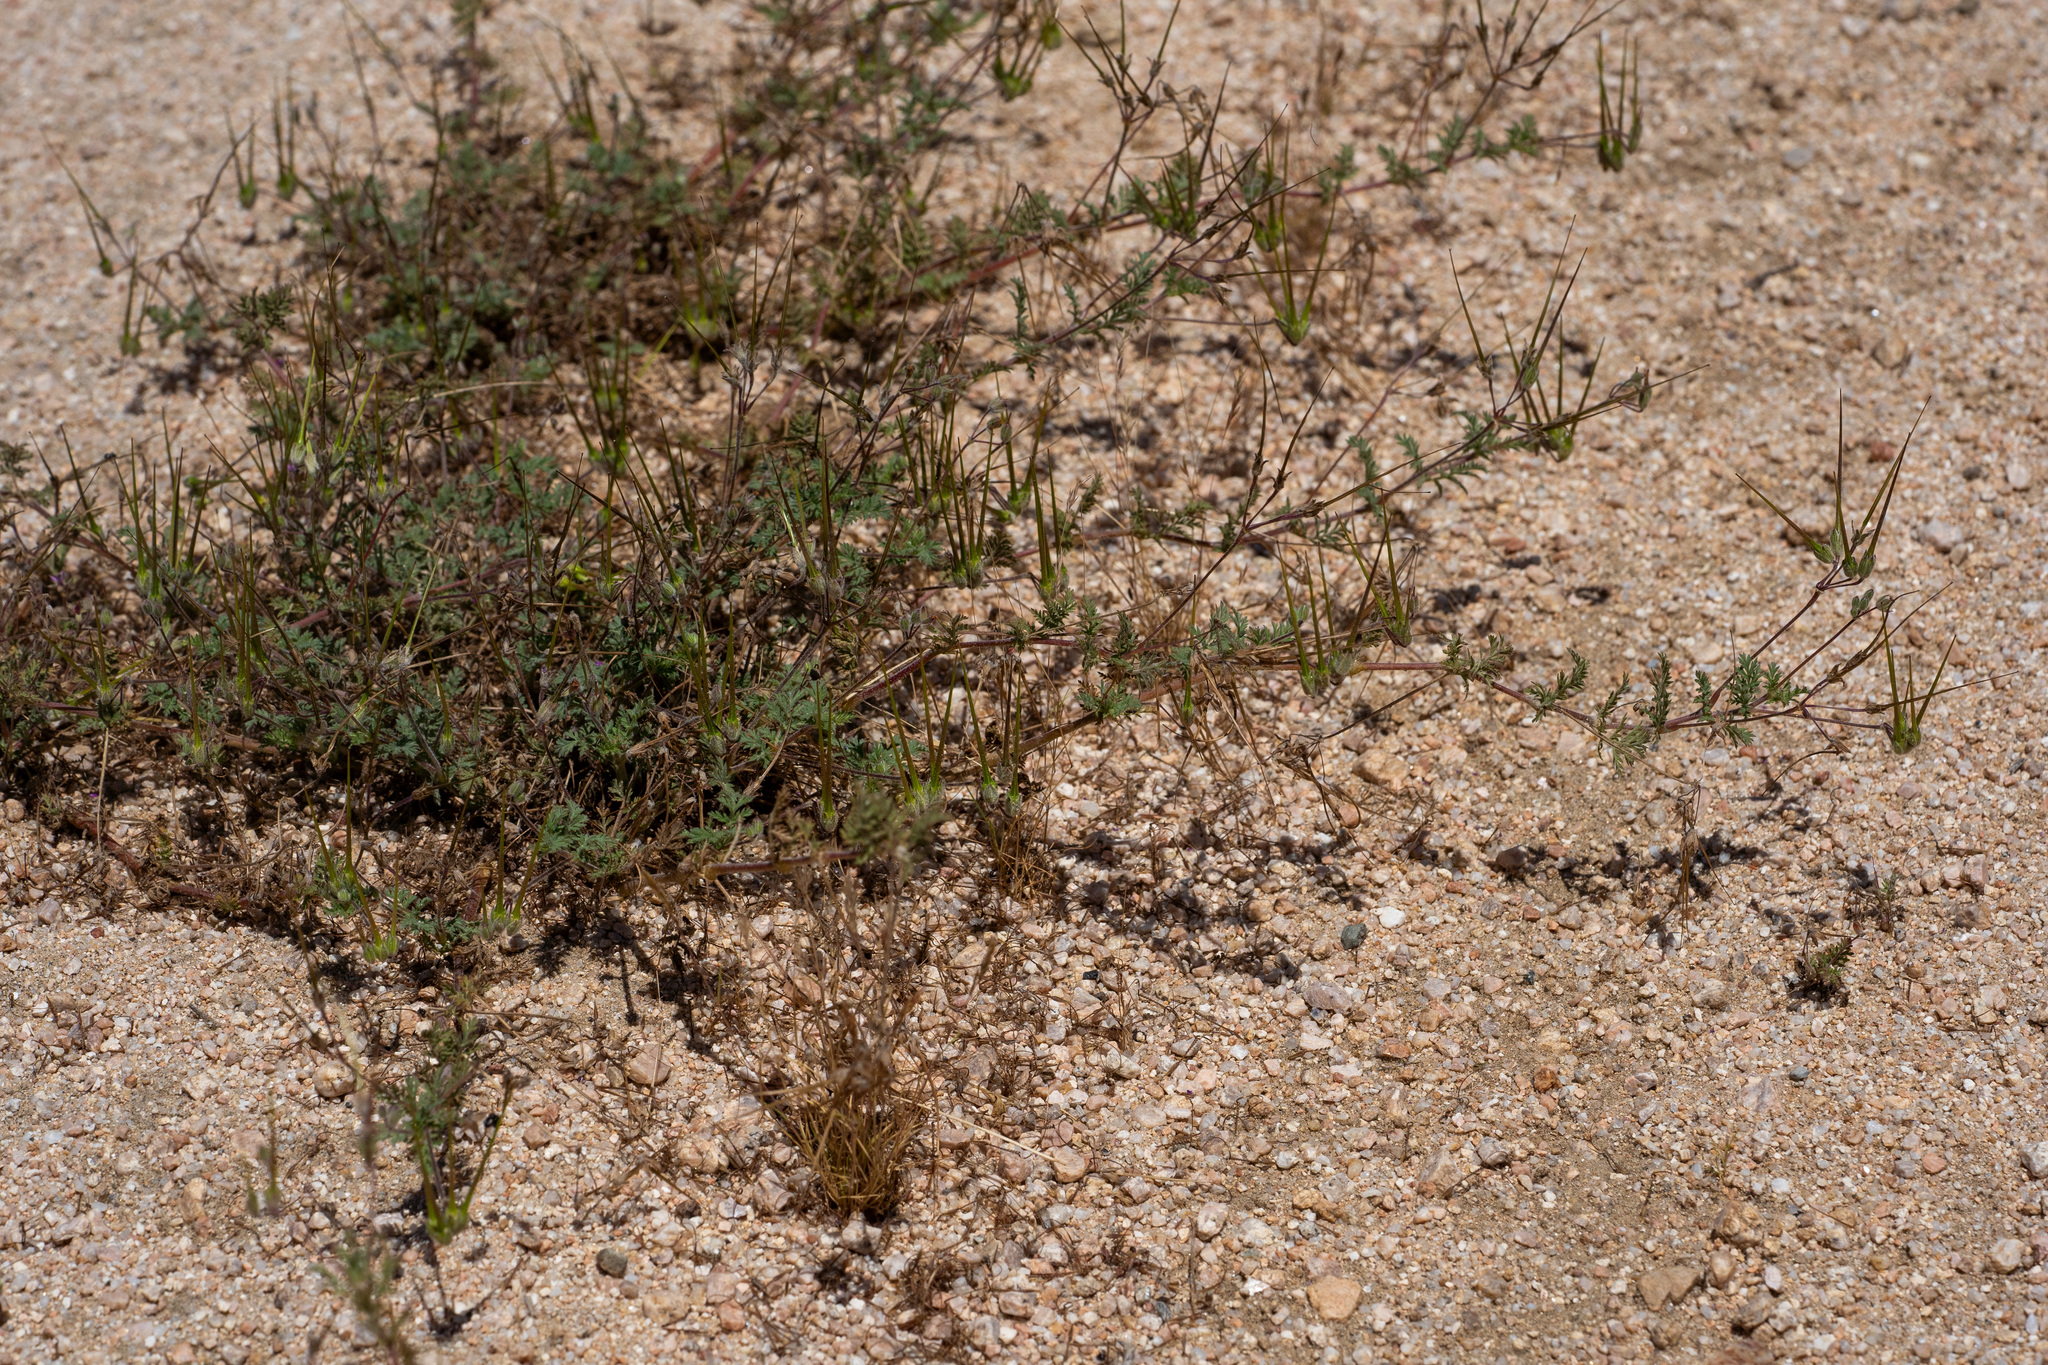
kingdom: Plantae
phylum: Tracheophyta
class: Magnoliopsida
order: Geraniales
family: Geraniaceae
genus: Erodium
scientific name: Erodium cicutarium
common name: Common stork's-bill
